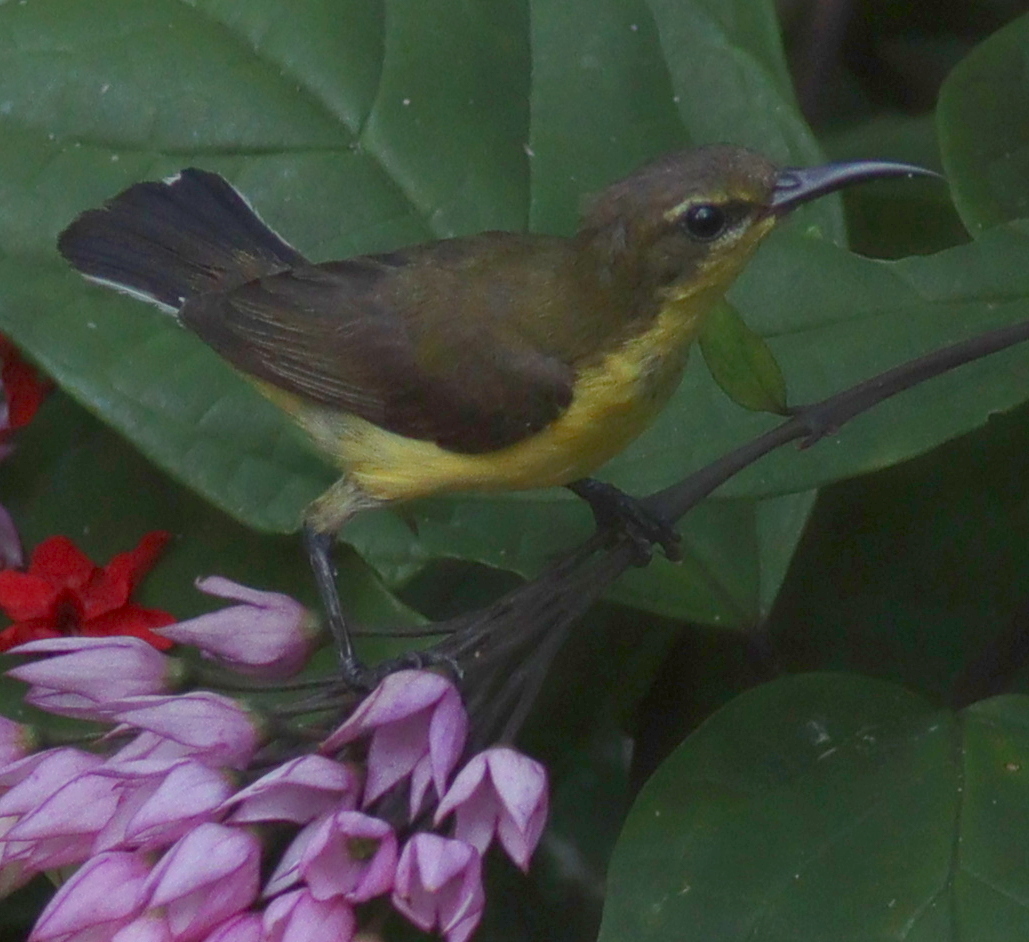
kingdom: Animalia
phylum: Chordata
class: Aves
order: Passeriformes
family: Nectariniidae
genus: Cinnyris
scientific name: Cinnyris
